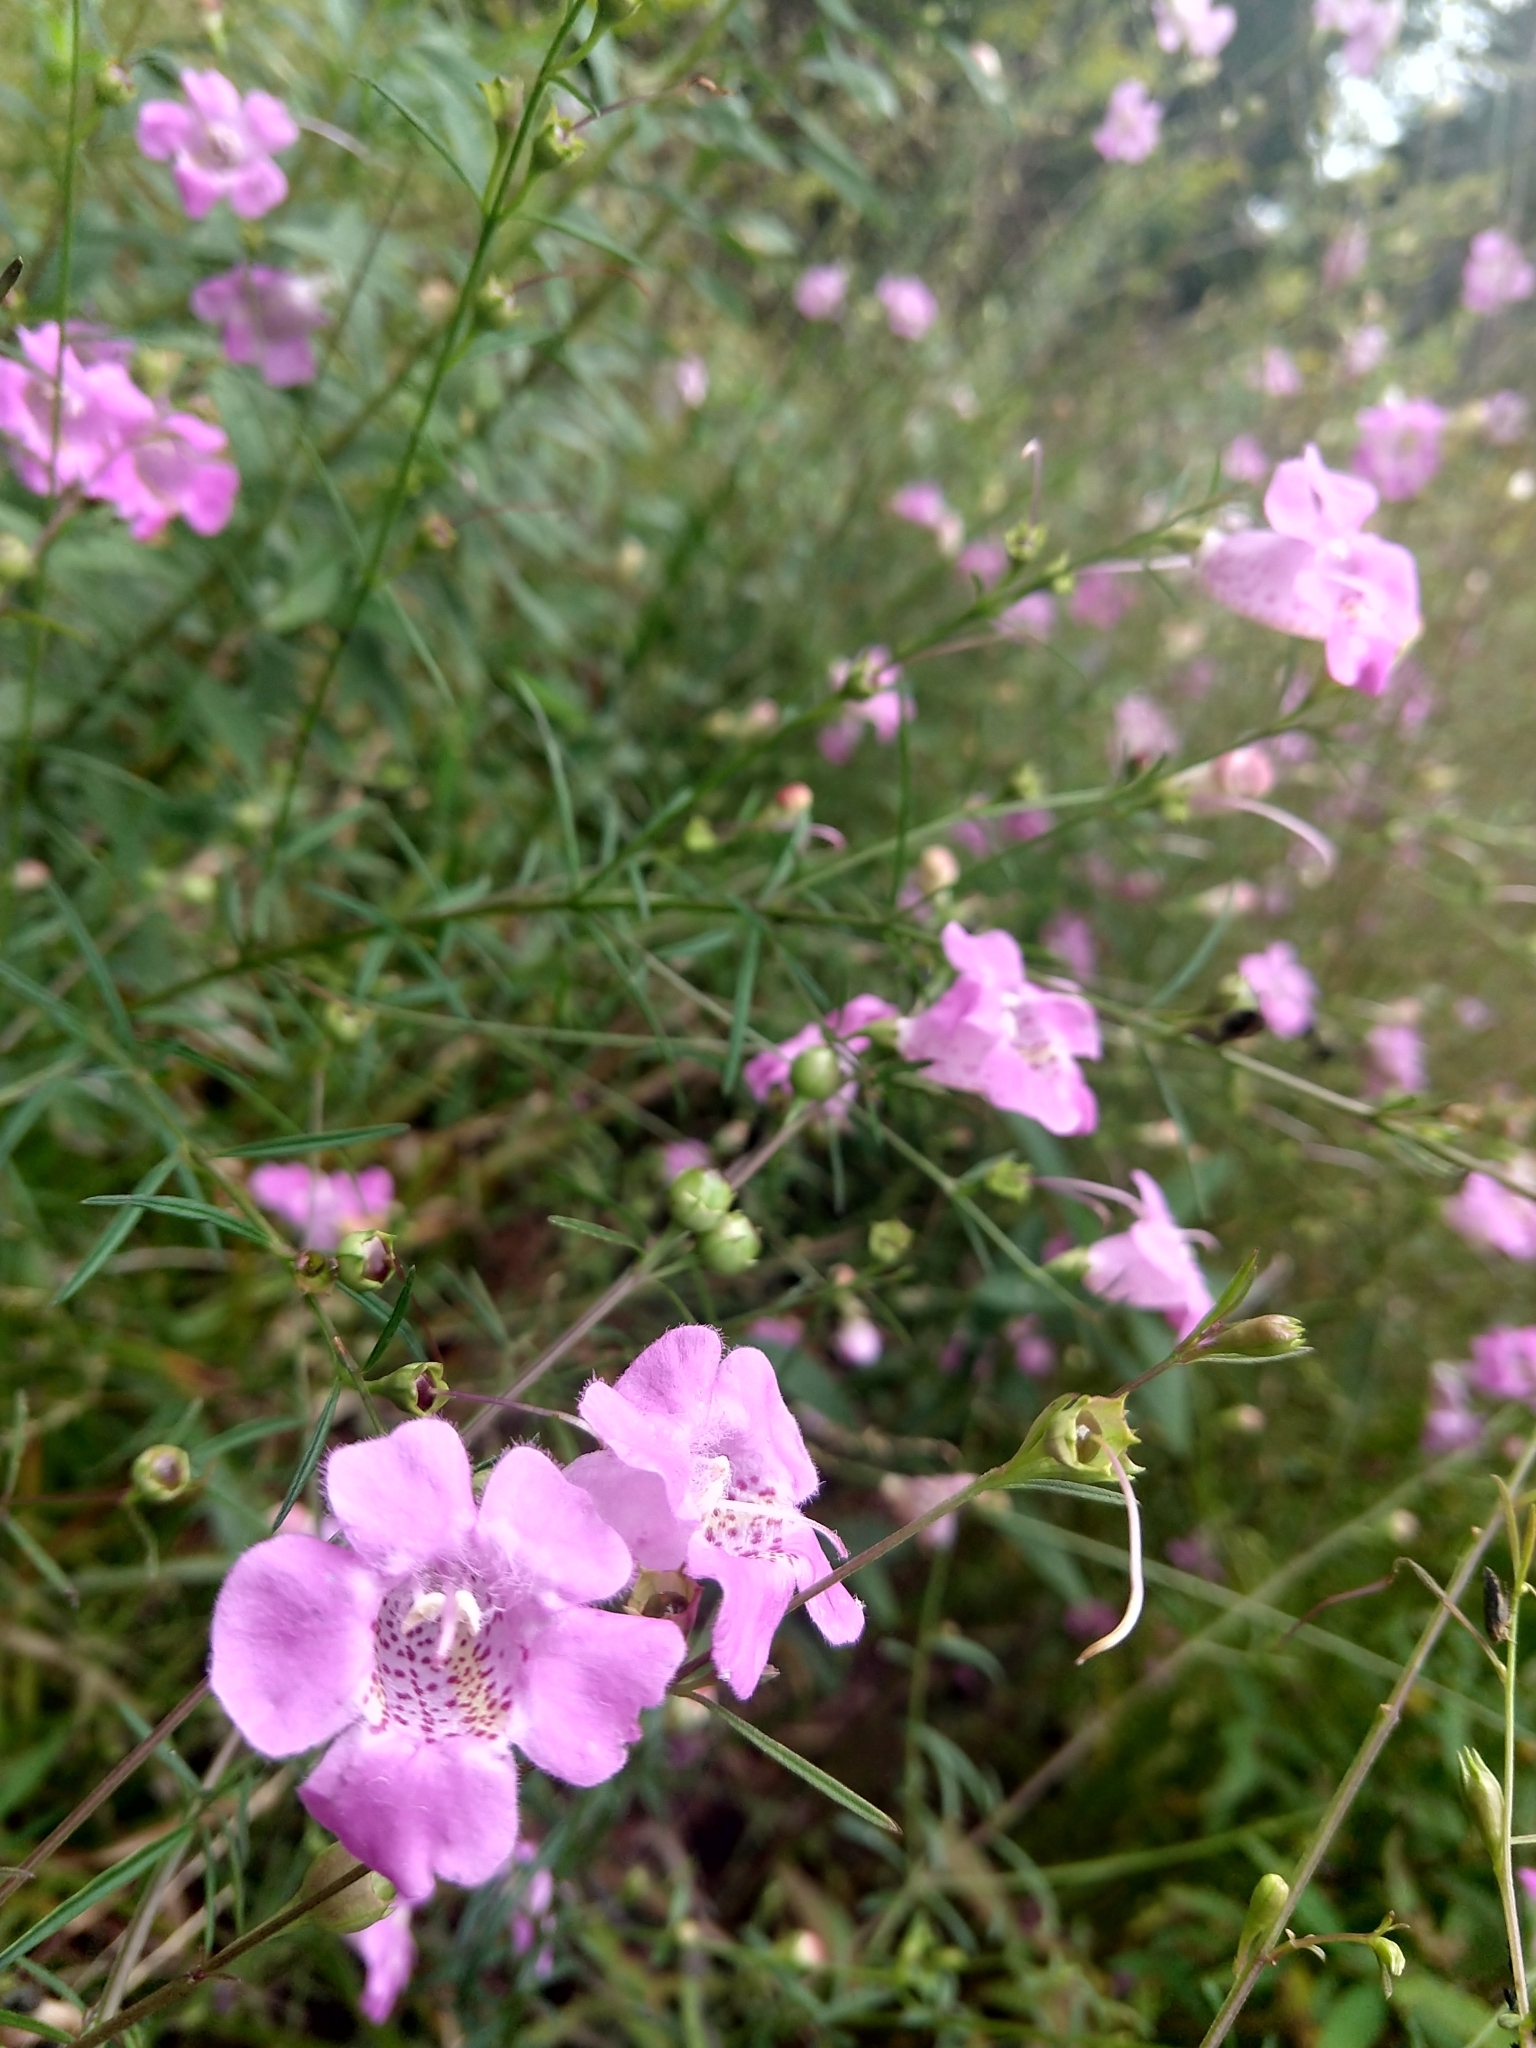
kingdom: Plantae
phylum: Tracheophyta
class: Magnoliopsida
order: Lamiales
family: Orobanchaceae
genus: Agalinis
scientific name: Agalinis purpurea
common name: Purple false foxglove
